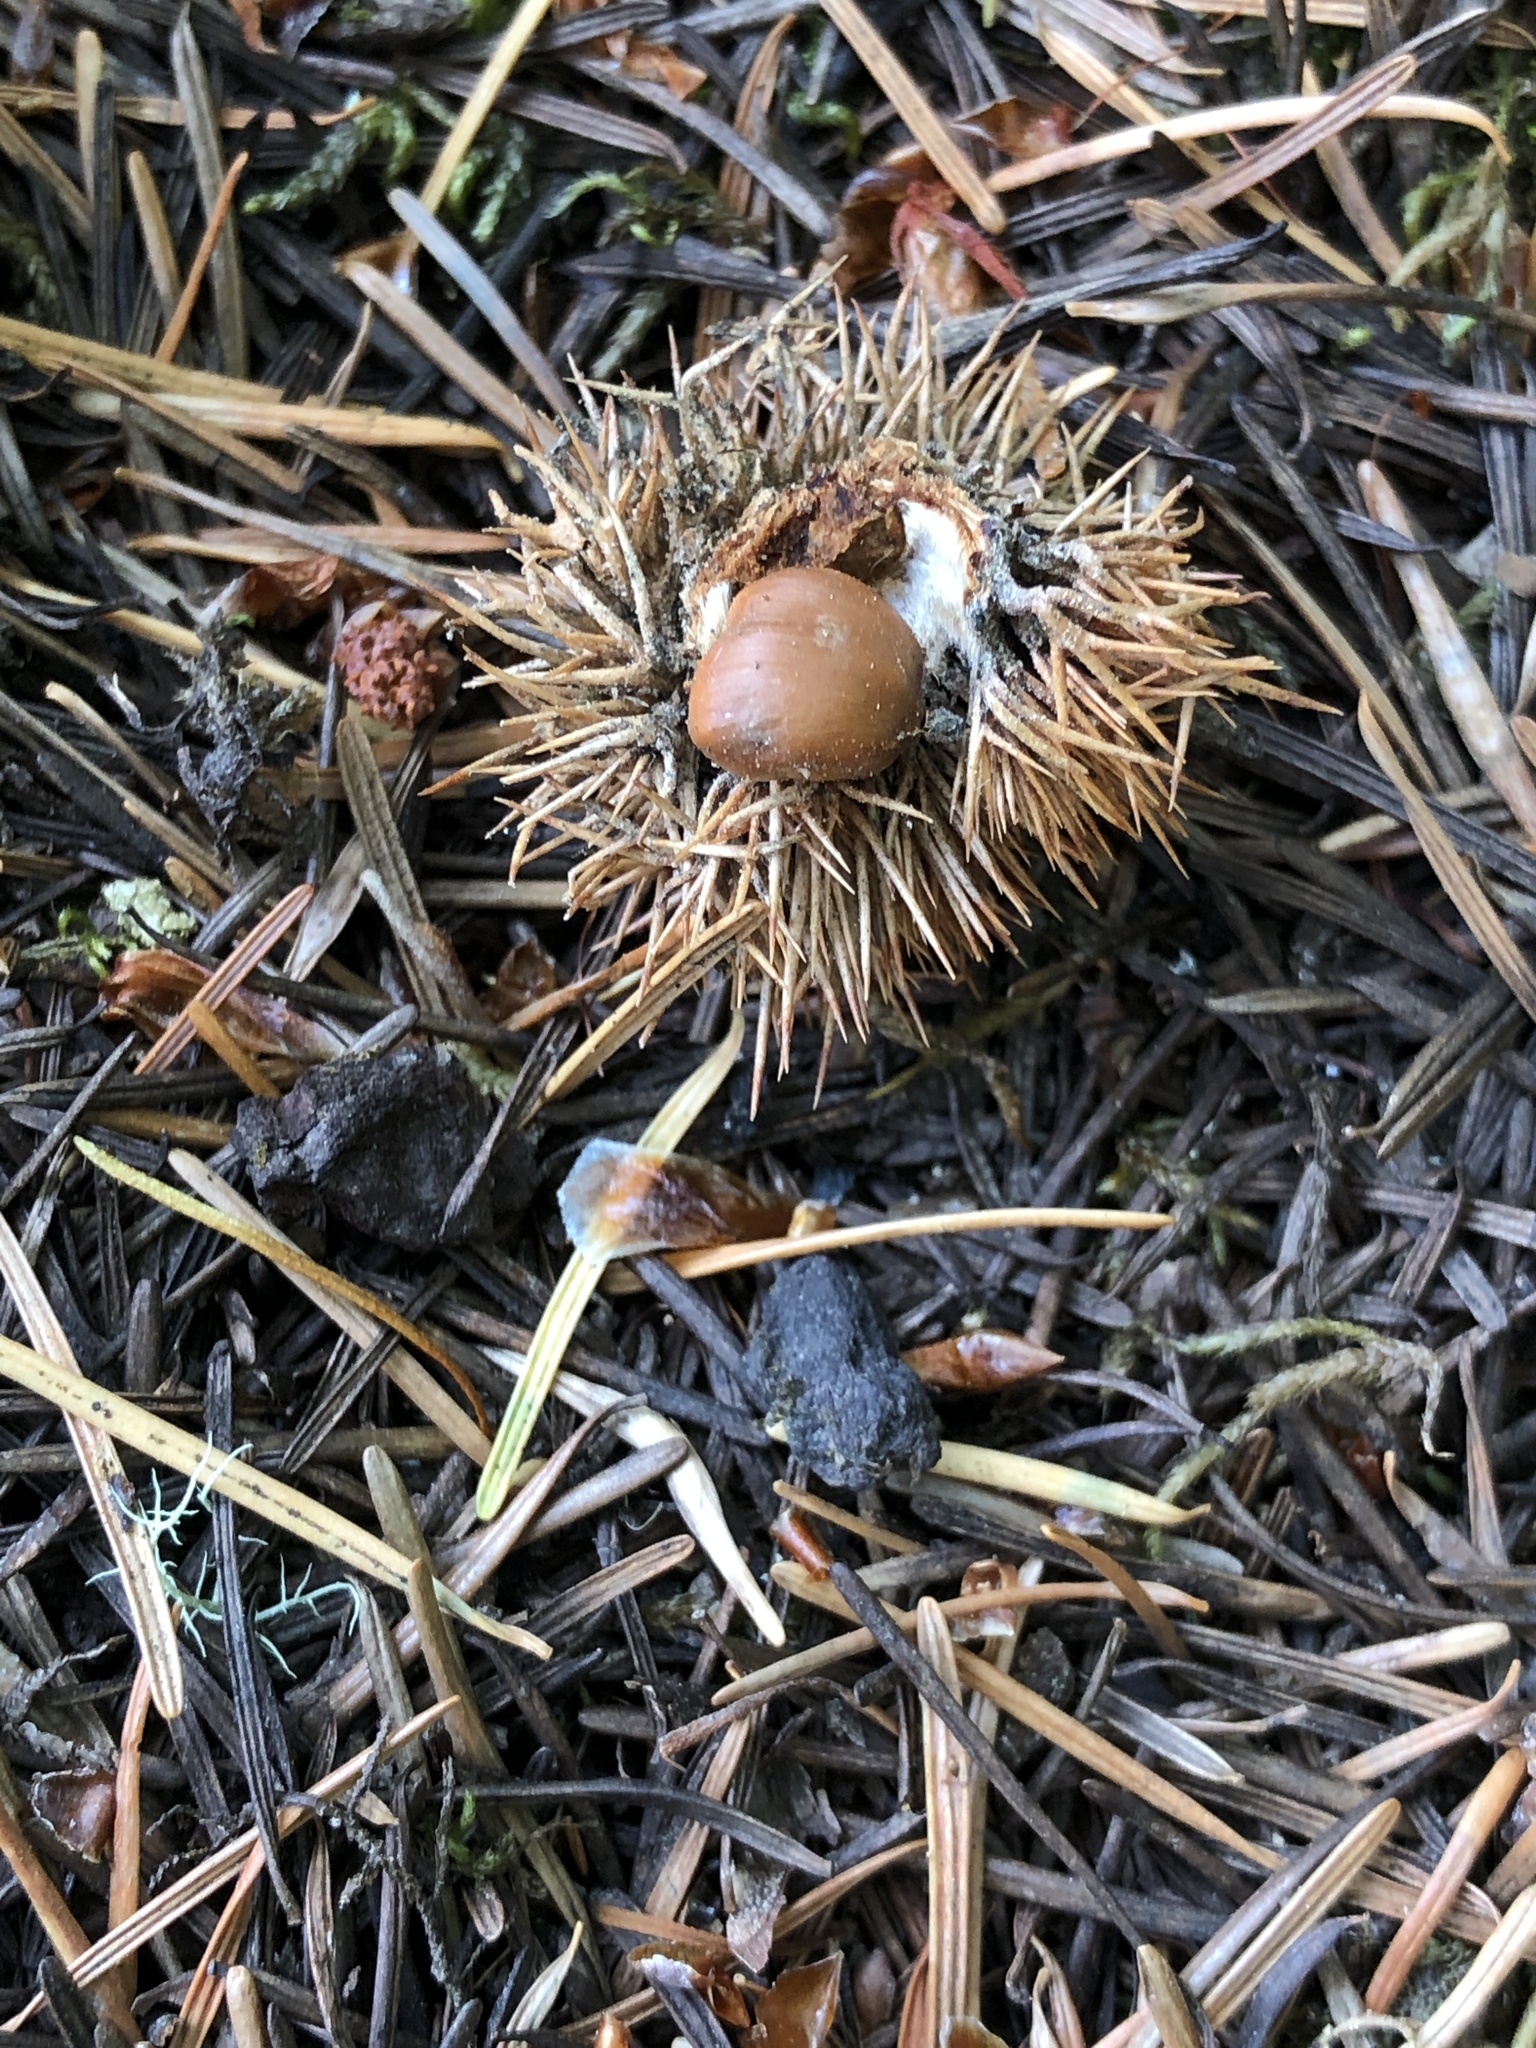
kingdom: Plantae
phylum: Tracheophyta
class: Magnoliopsida
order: Fagales
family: Fagaceae
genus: Chrysolepis
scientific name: Chrysolepis chrysophylla
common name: Giant chinquapin
